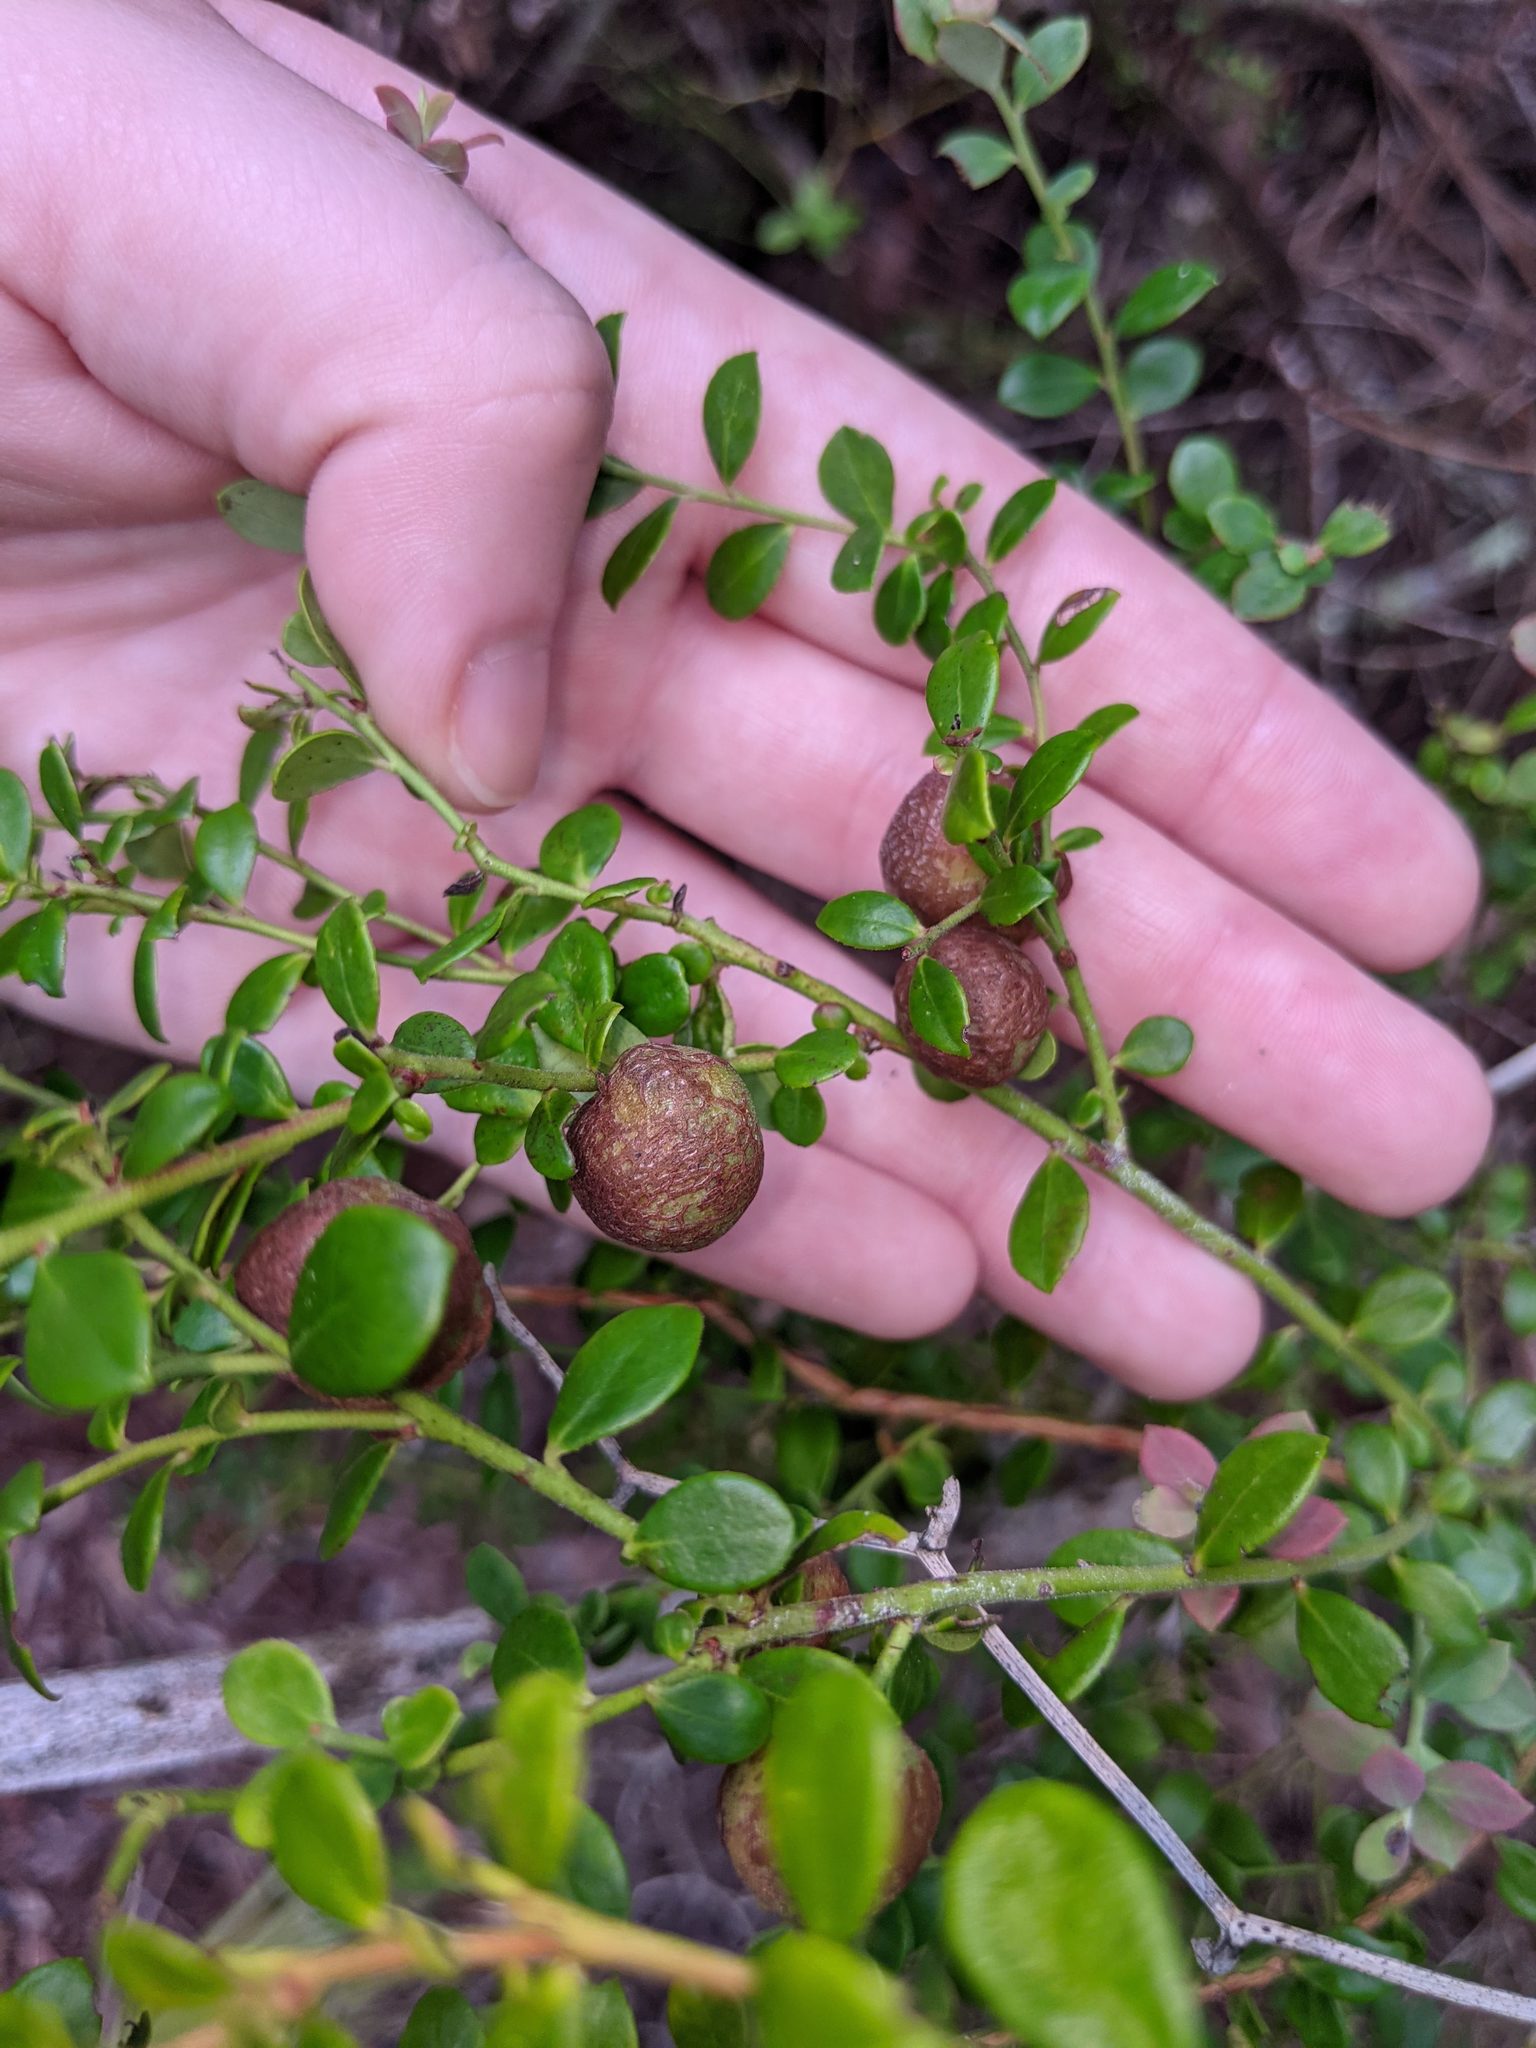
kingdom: Plantae
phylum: Tracheophyta
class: Magnoliopsida
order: Ericales
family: Ericaceae
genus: Vaccinium
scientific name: Vaccinium darrowii
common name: Darrow's blueberry
